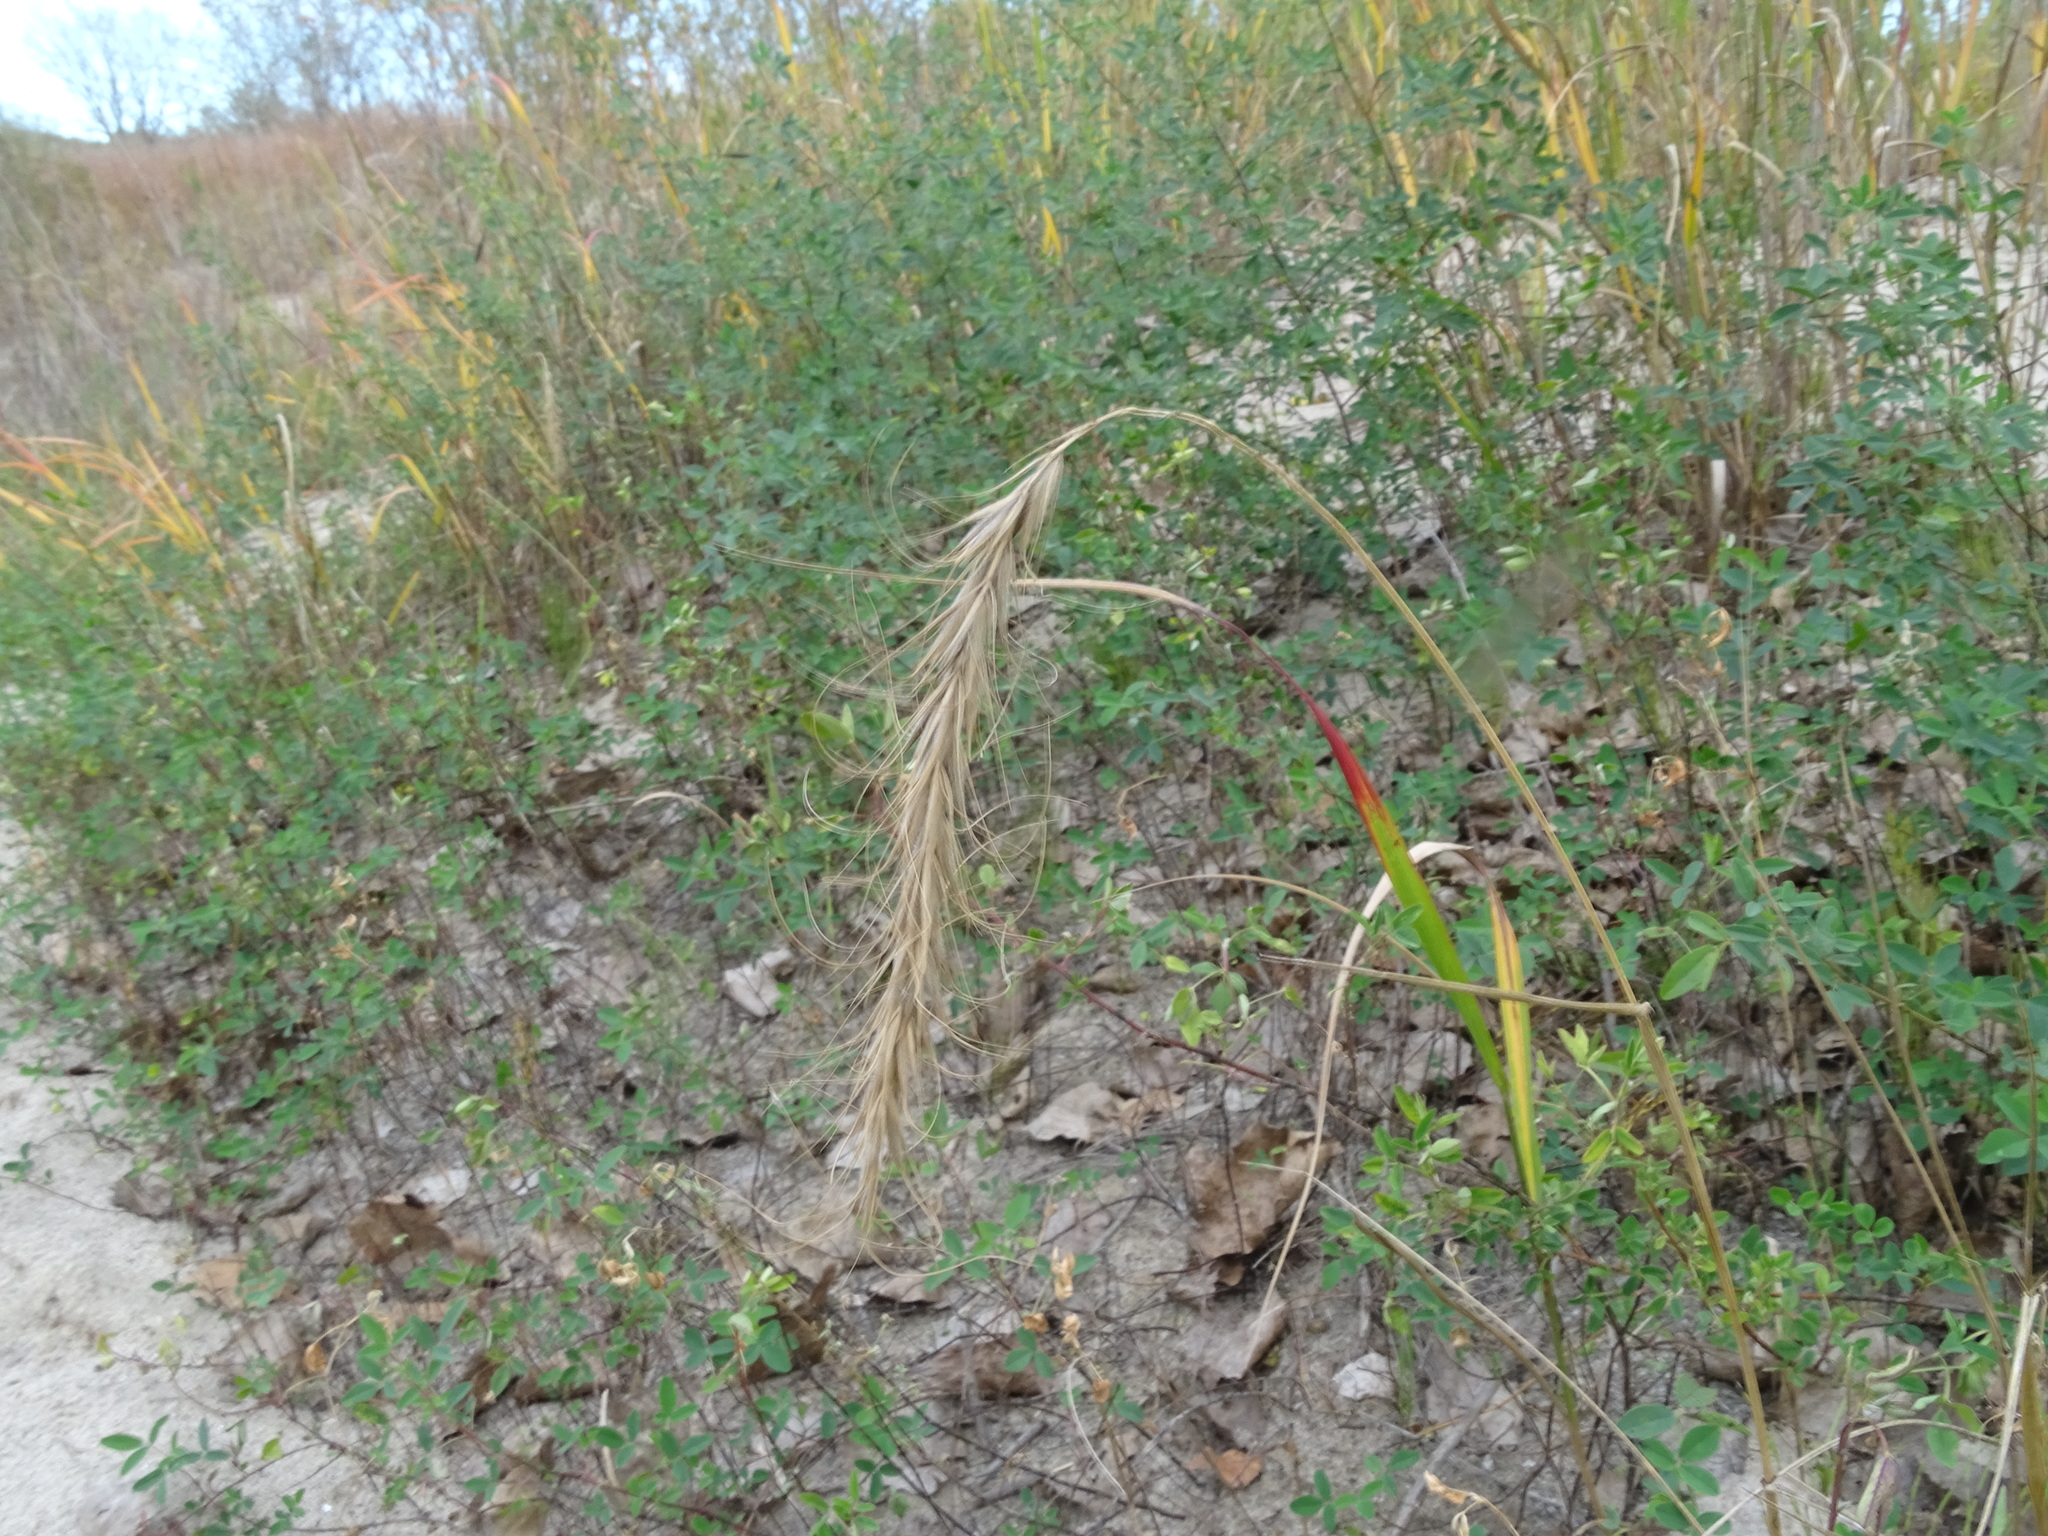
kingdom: Plantae
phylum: Tracheophyta
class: Liliopsida
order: Poales
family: Poaceae
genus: Elymus
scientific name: Elymus canadensis
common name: Canada wild rye
